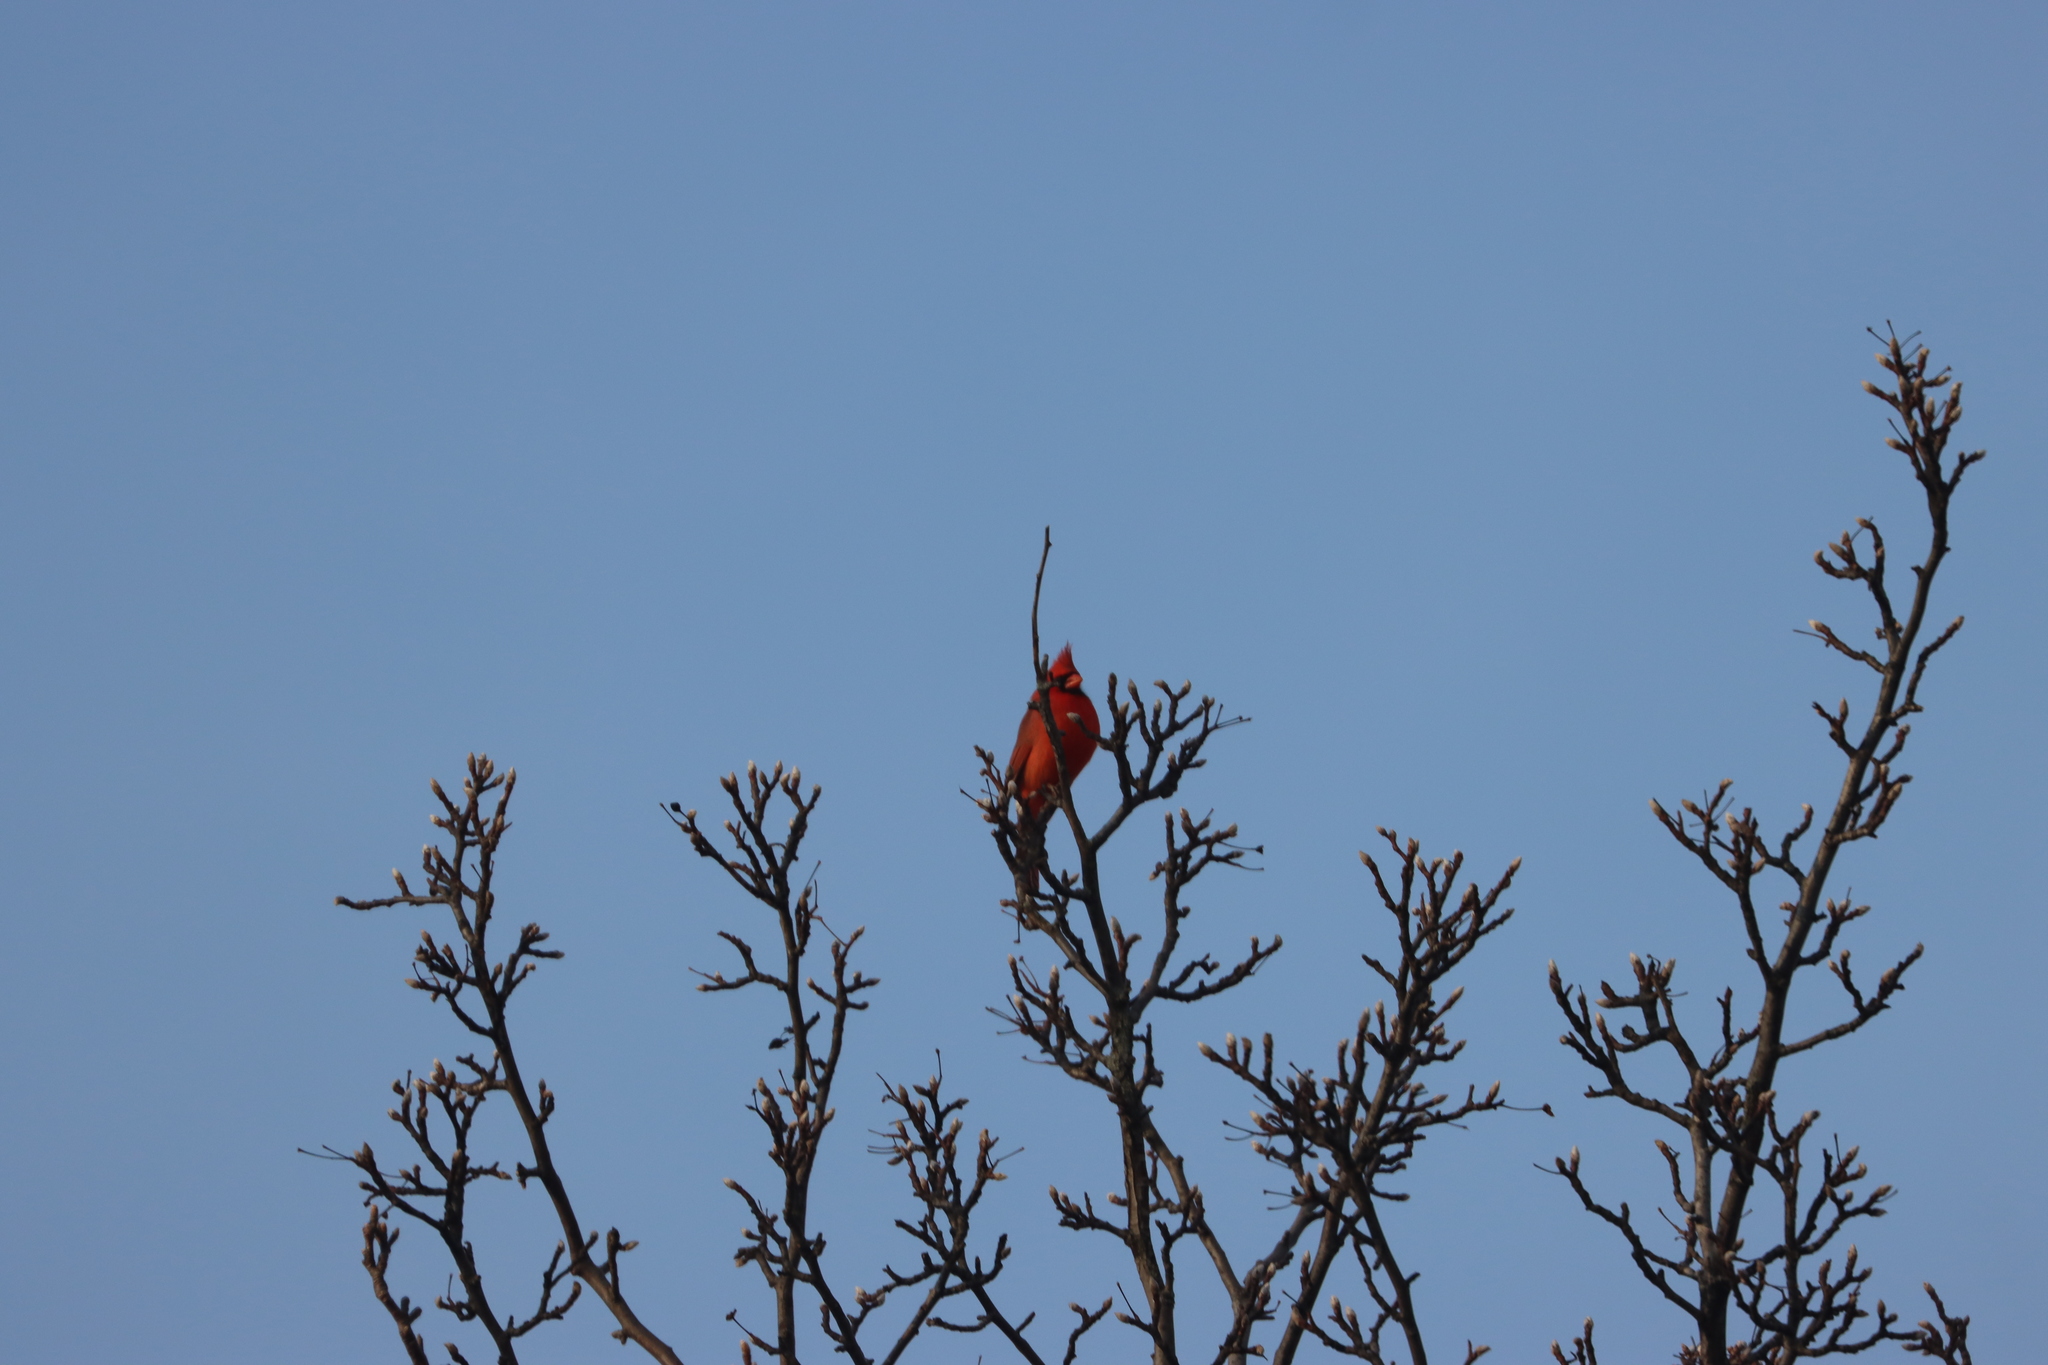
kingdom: Animalia
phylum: Chordata
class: Aves
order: Passeriformes
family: Cardinalidae
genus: Cardinalis
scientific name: Cardinalis cardinalis
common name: Northern cardinal
